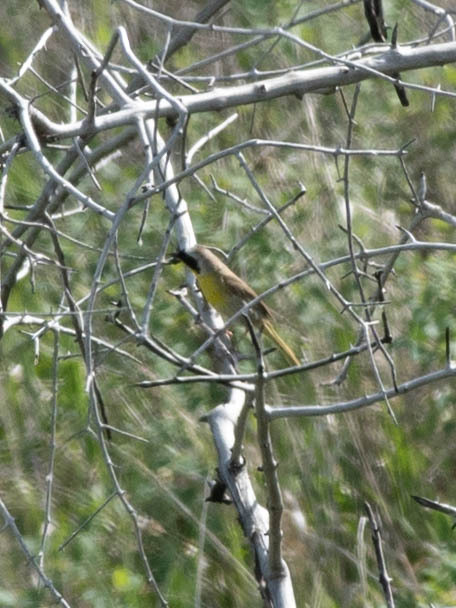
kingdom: Animalia
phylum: Chordata
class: Aves
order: Passeriformes
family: Parulidae
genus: Geothlypis
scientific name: Geothlypis trichas
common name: Common yellowthroat
